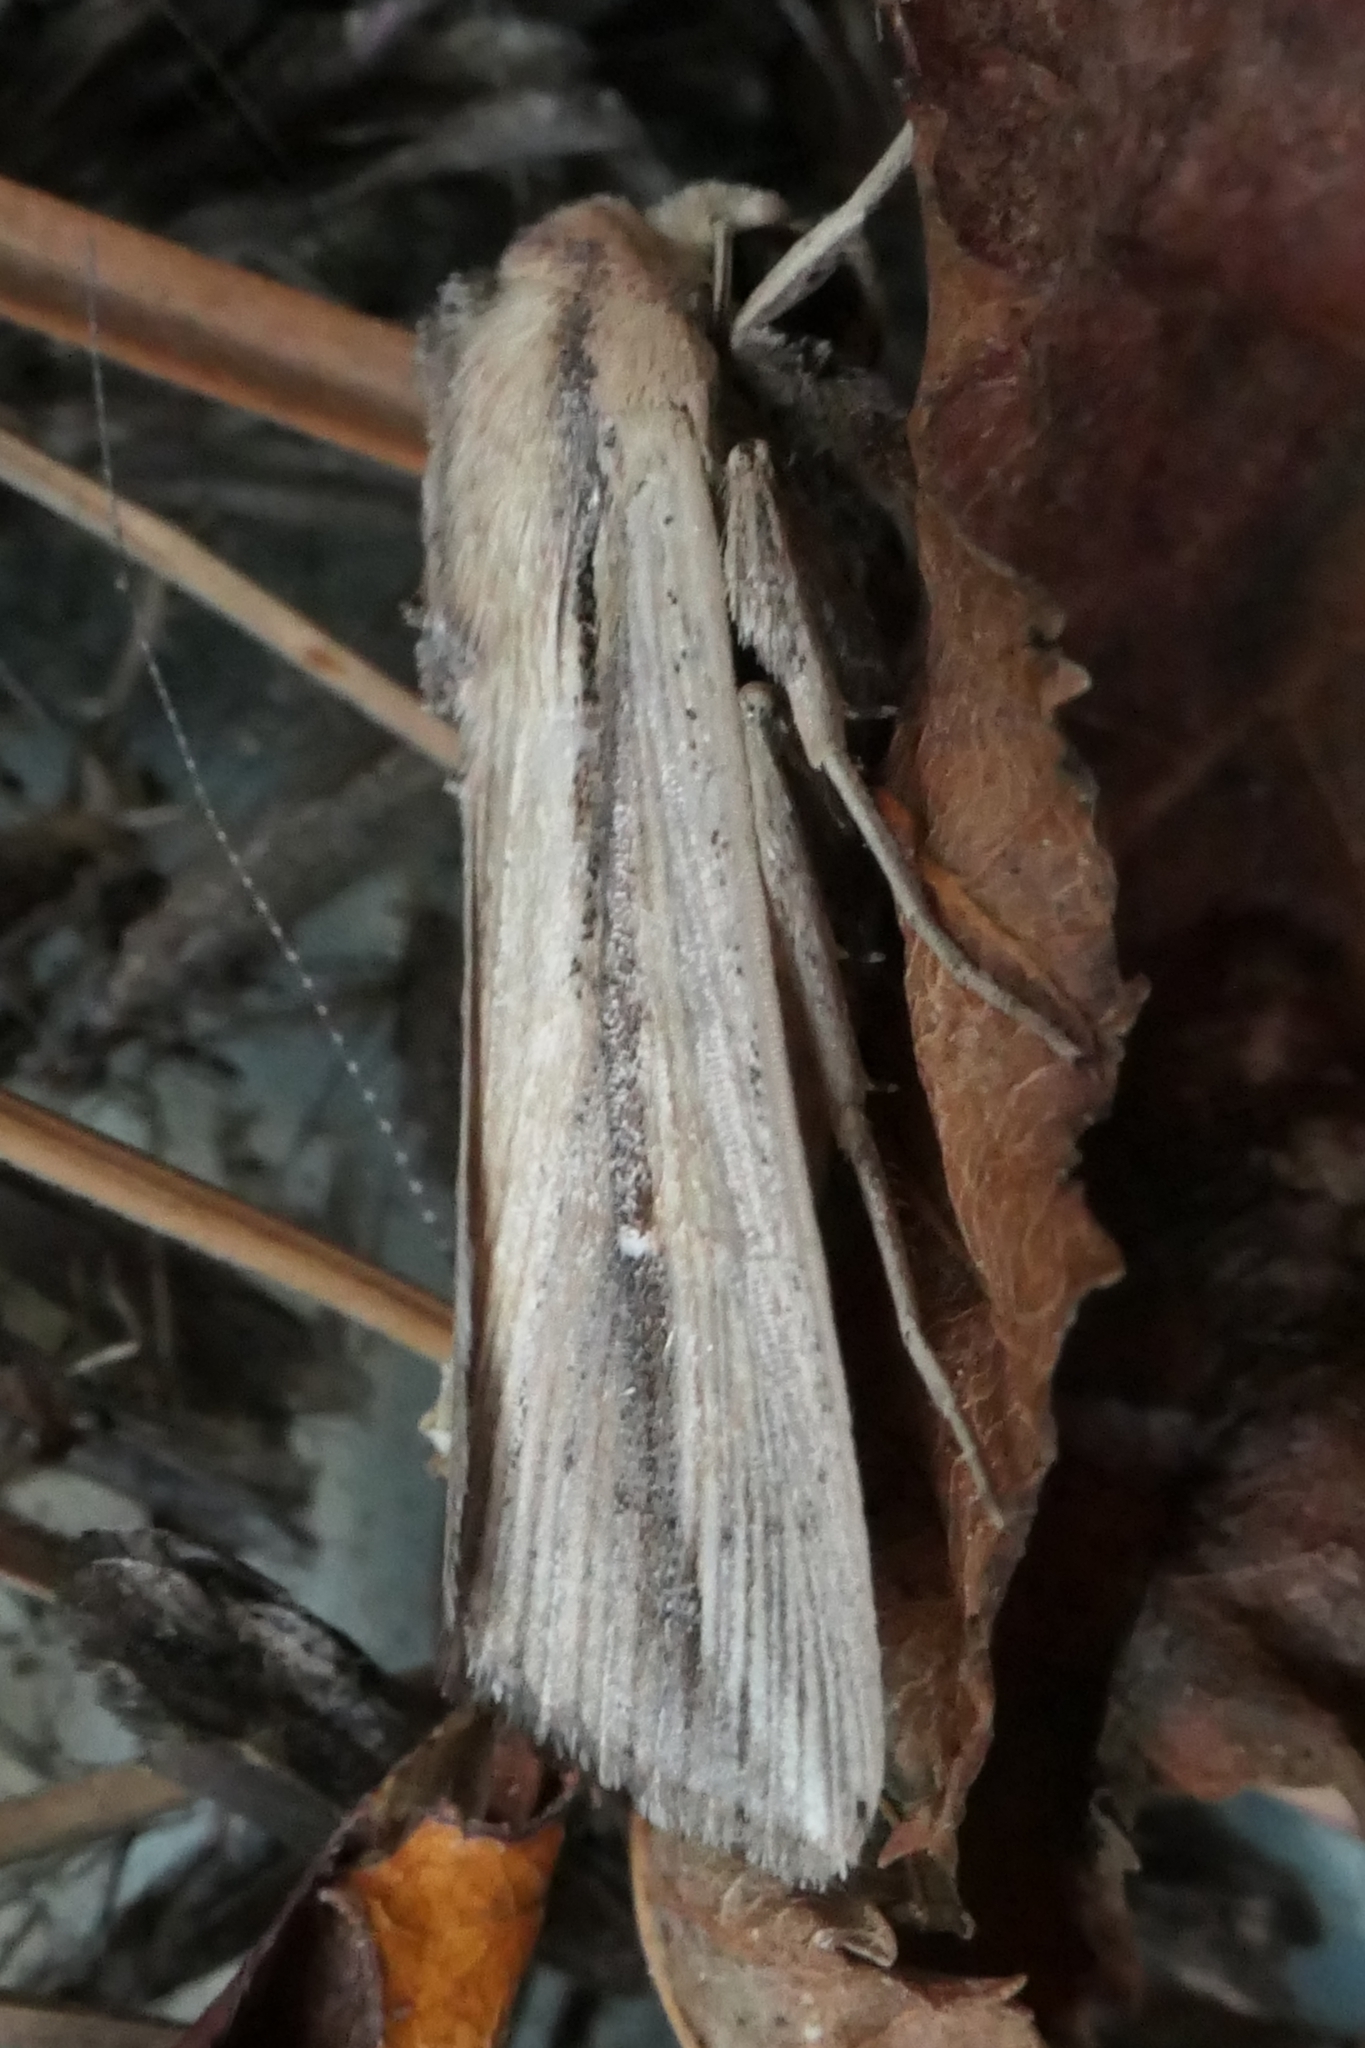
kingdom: Animalia
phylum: Arthropoda
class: Insecta
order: Lepidoptera
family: Noctuidae
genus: Leucania
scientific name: Leucania stenographa
